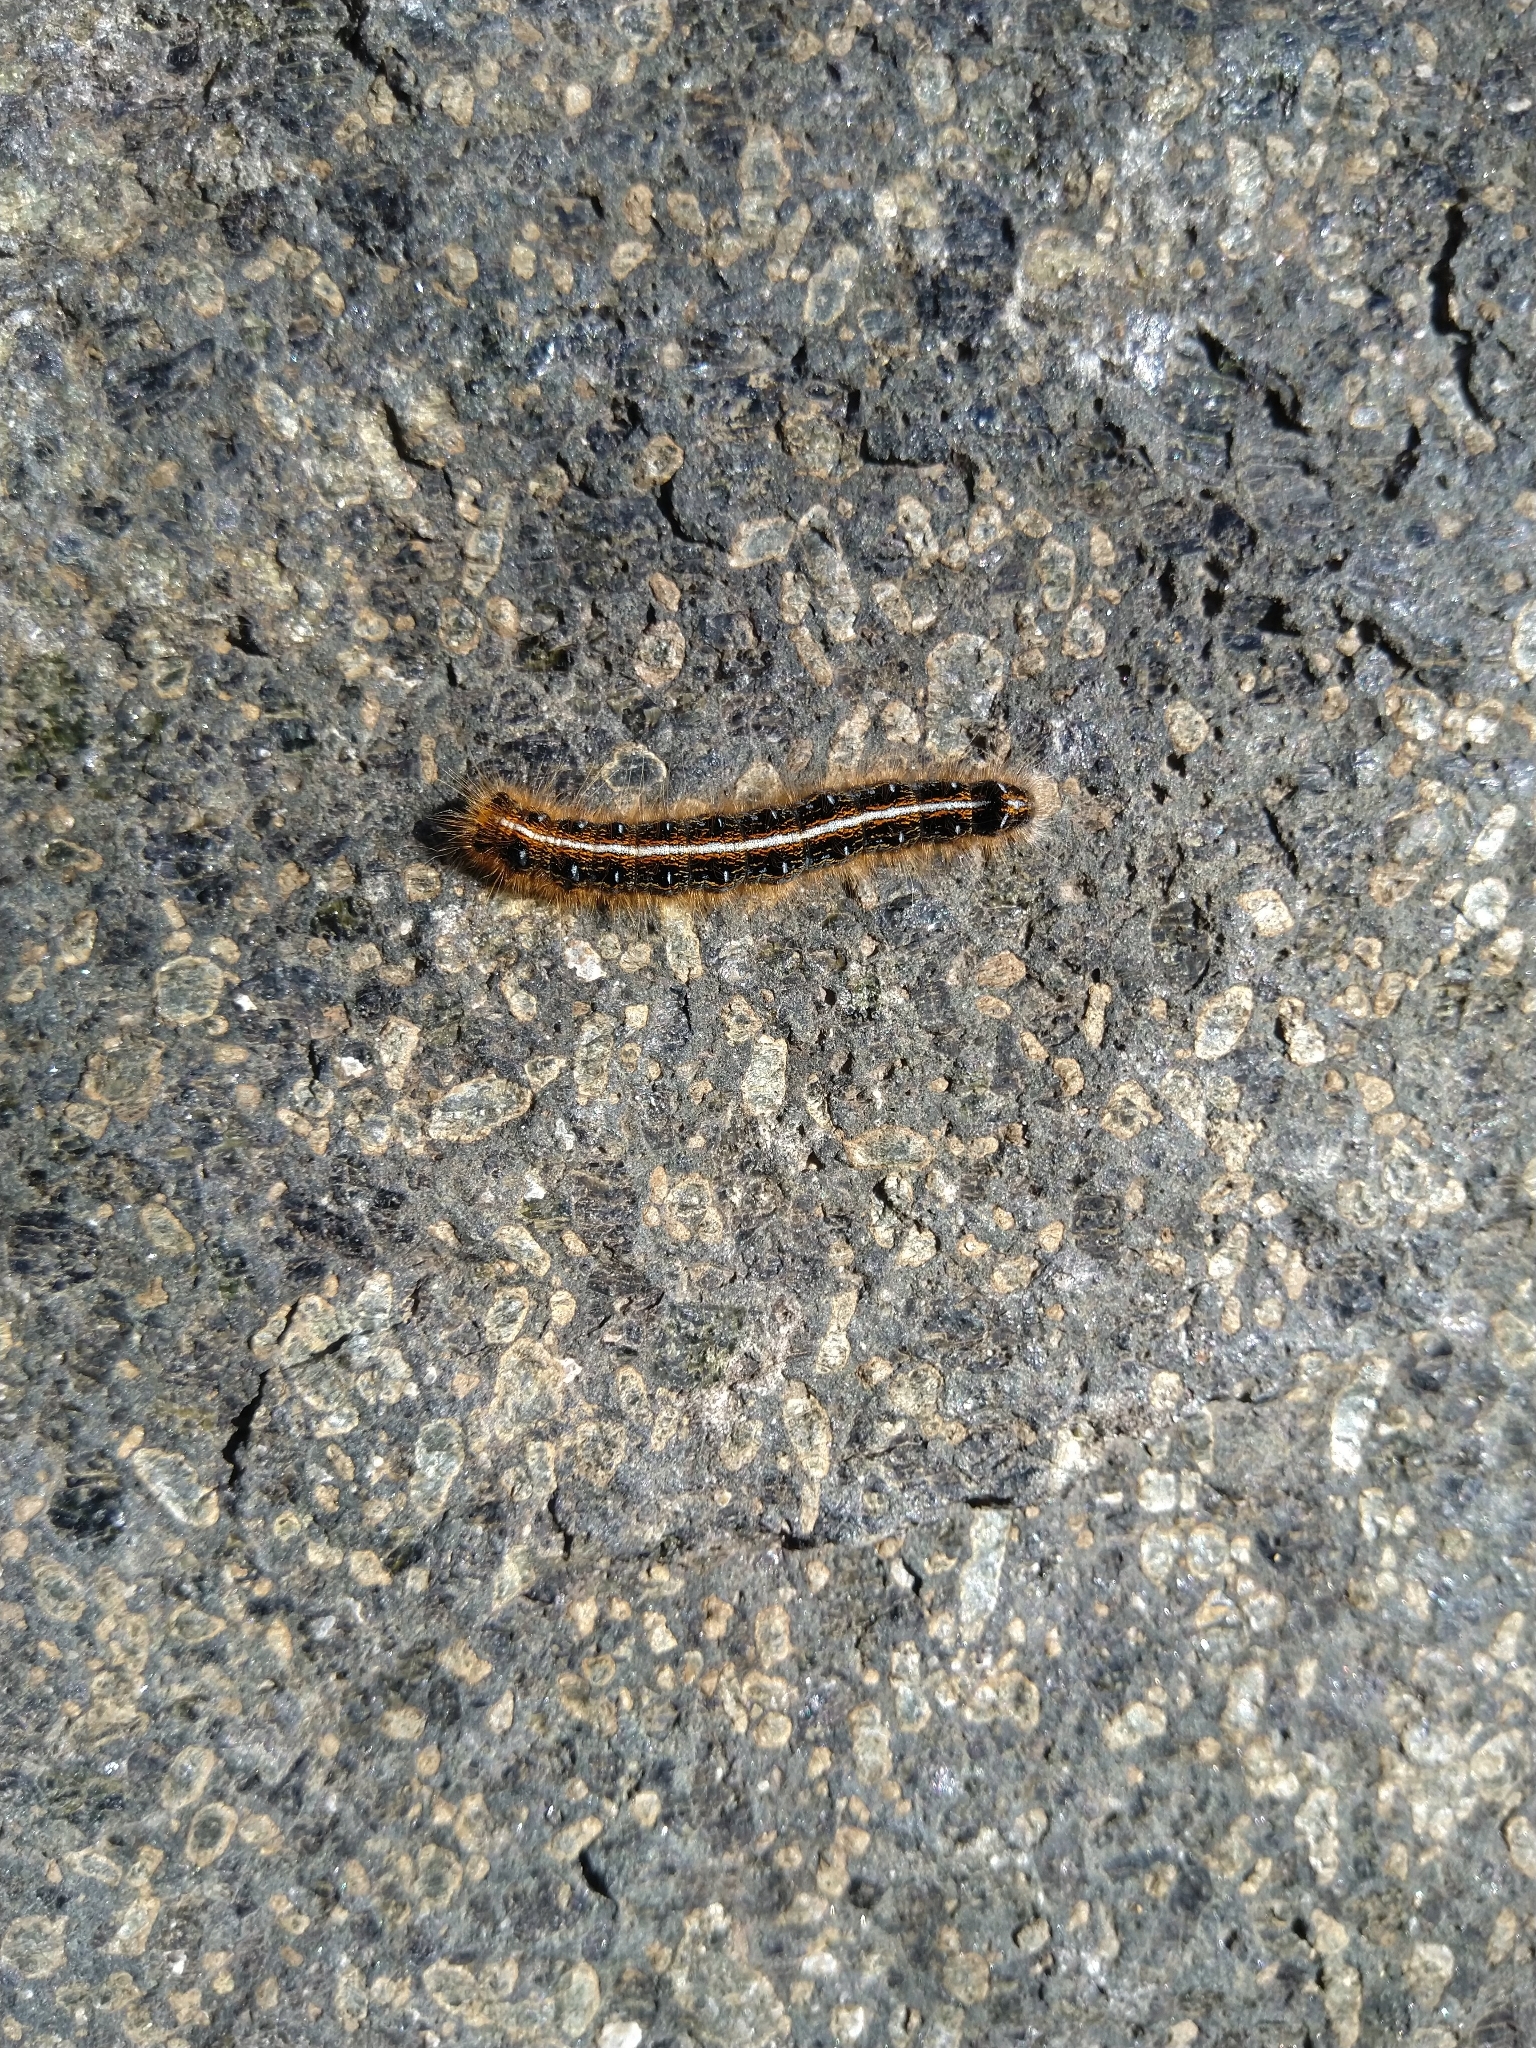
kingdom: Animalia
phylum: Arthropoda
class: Insecta
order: Lepidoptera
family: Lasiocampidae
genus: Malacosoma
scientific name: Malacosoma americana
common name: Eastern tent caterpillar moth
